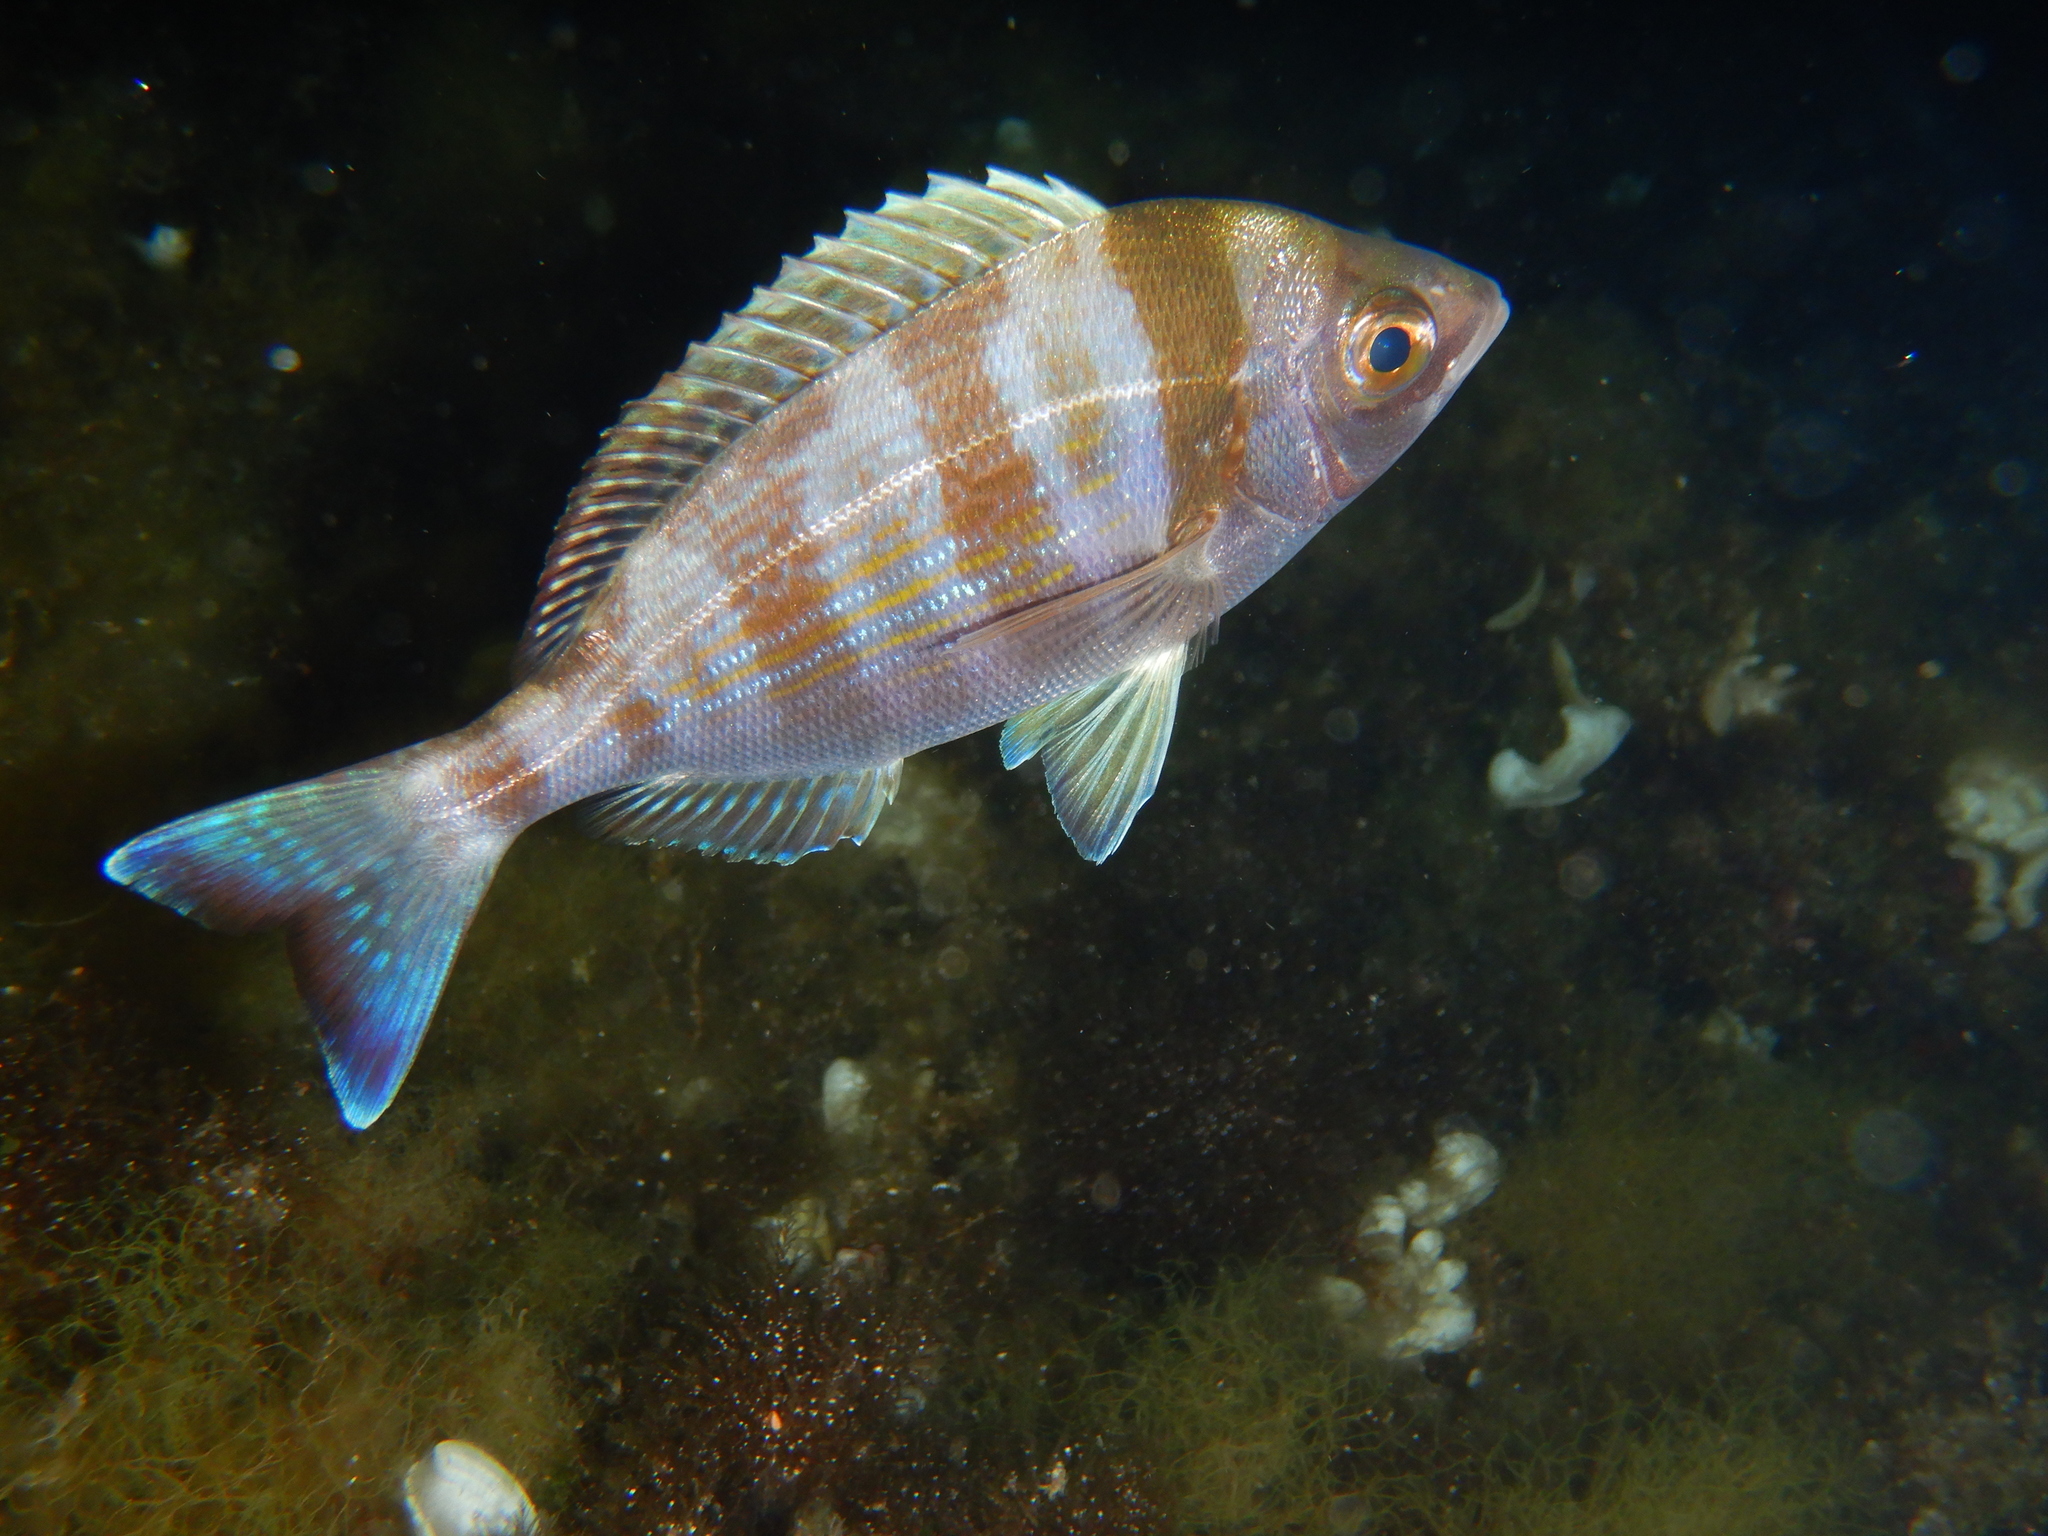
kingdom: Animalia
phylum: Chordata
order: Perciformes
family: Sparidae
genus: Spondyliosoma
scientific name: Spondyliosoma cantharus
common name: Black seabream
